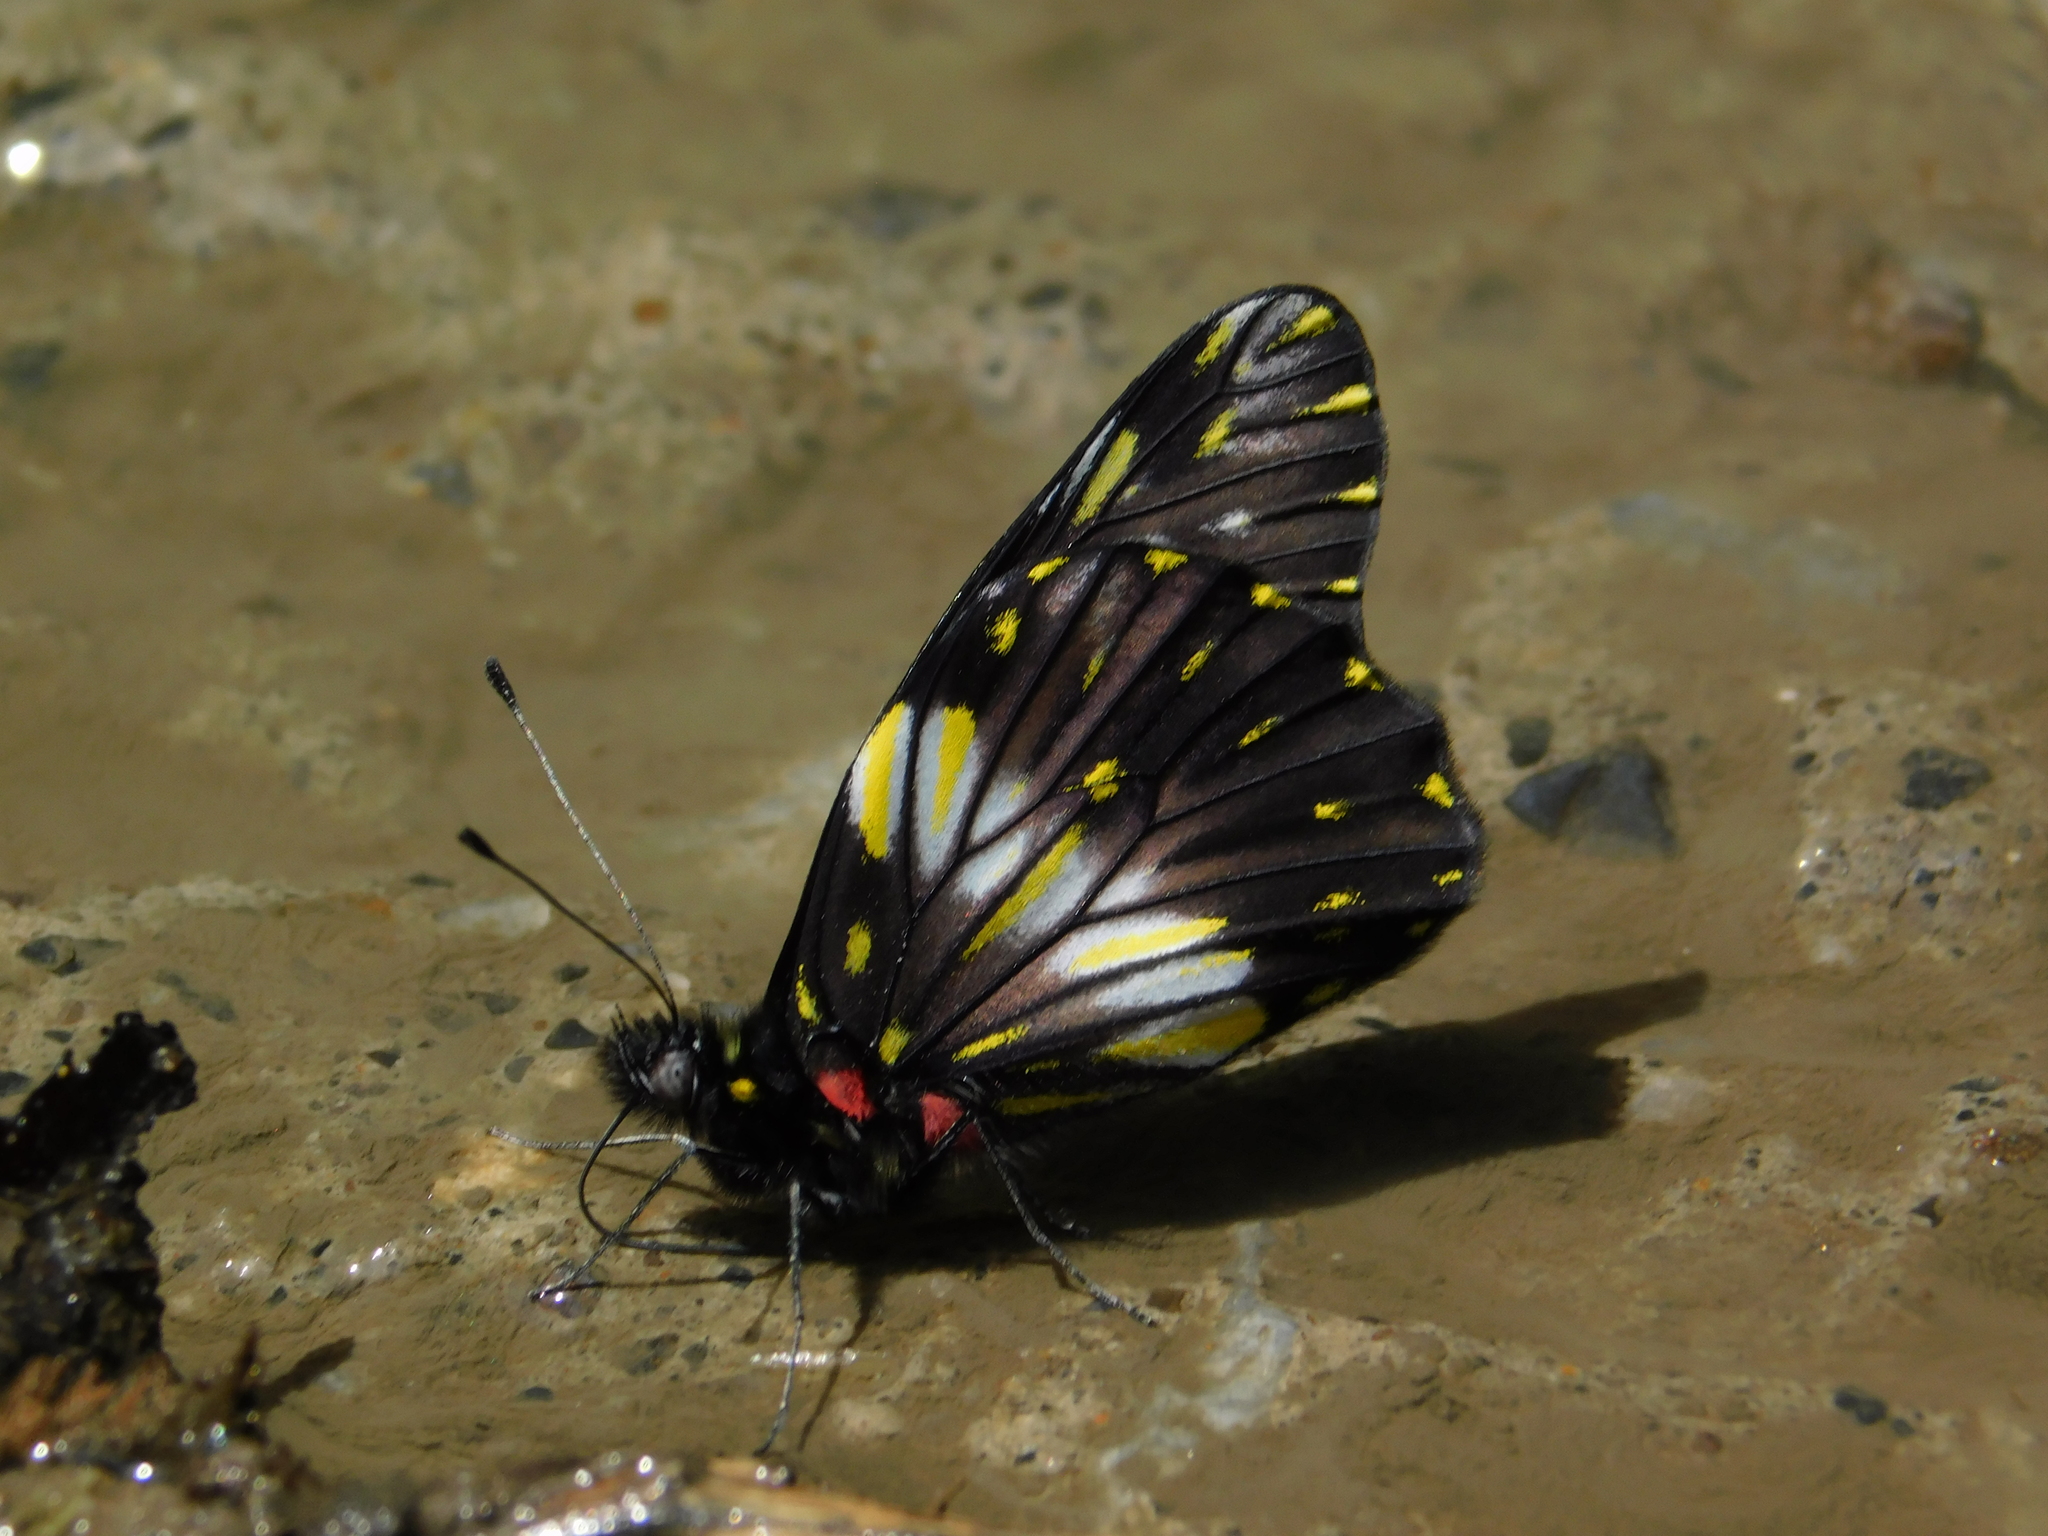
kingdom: Animalia
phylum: Arthropoda
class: Insecta
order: Lepidoptera
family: Pieridae
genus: Archonias
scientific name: Archonias flisa
